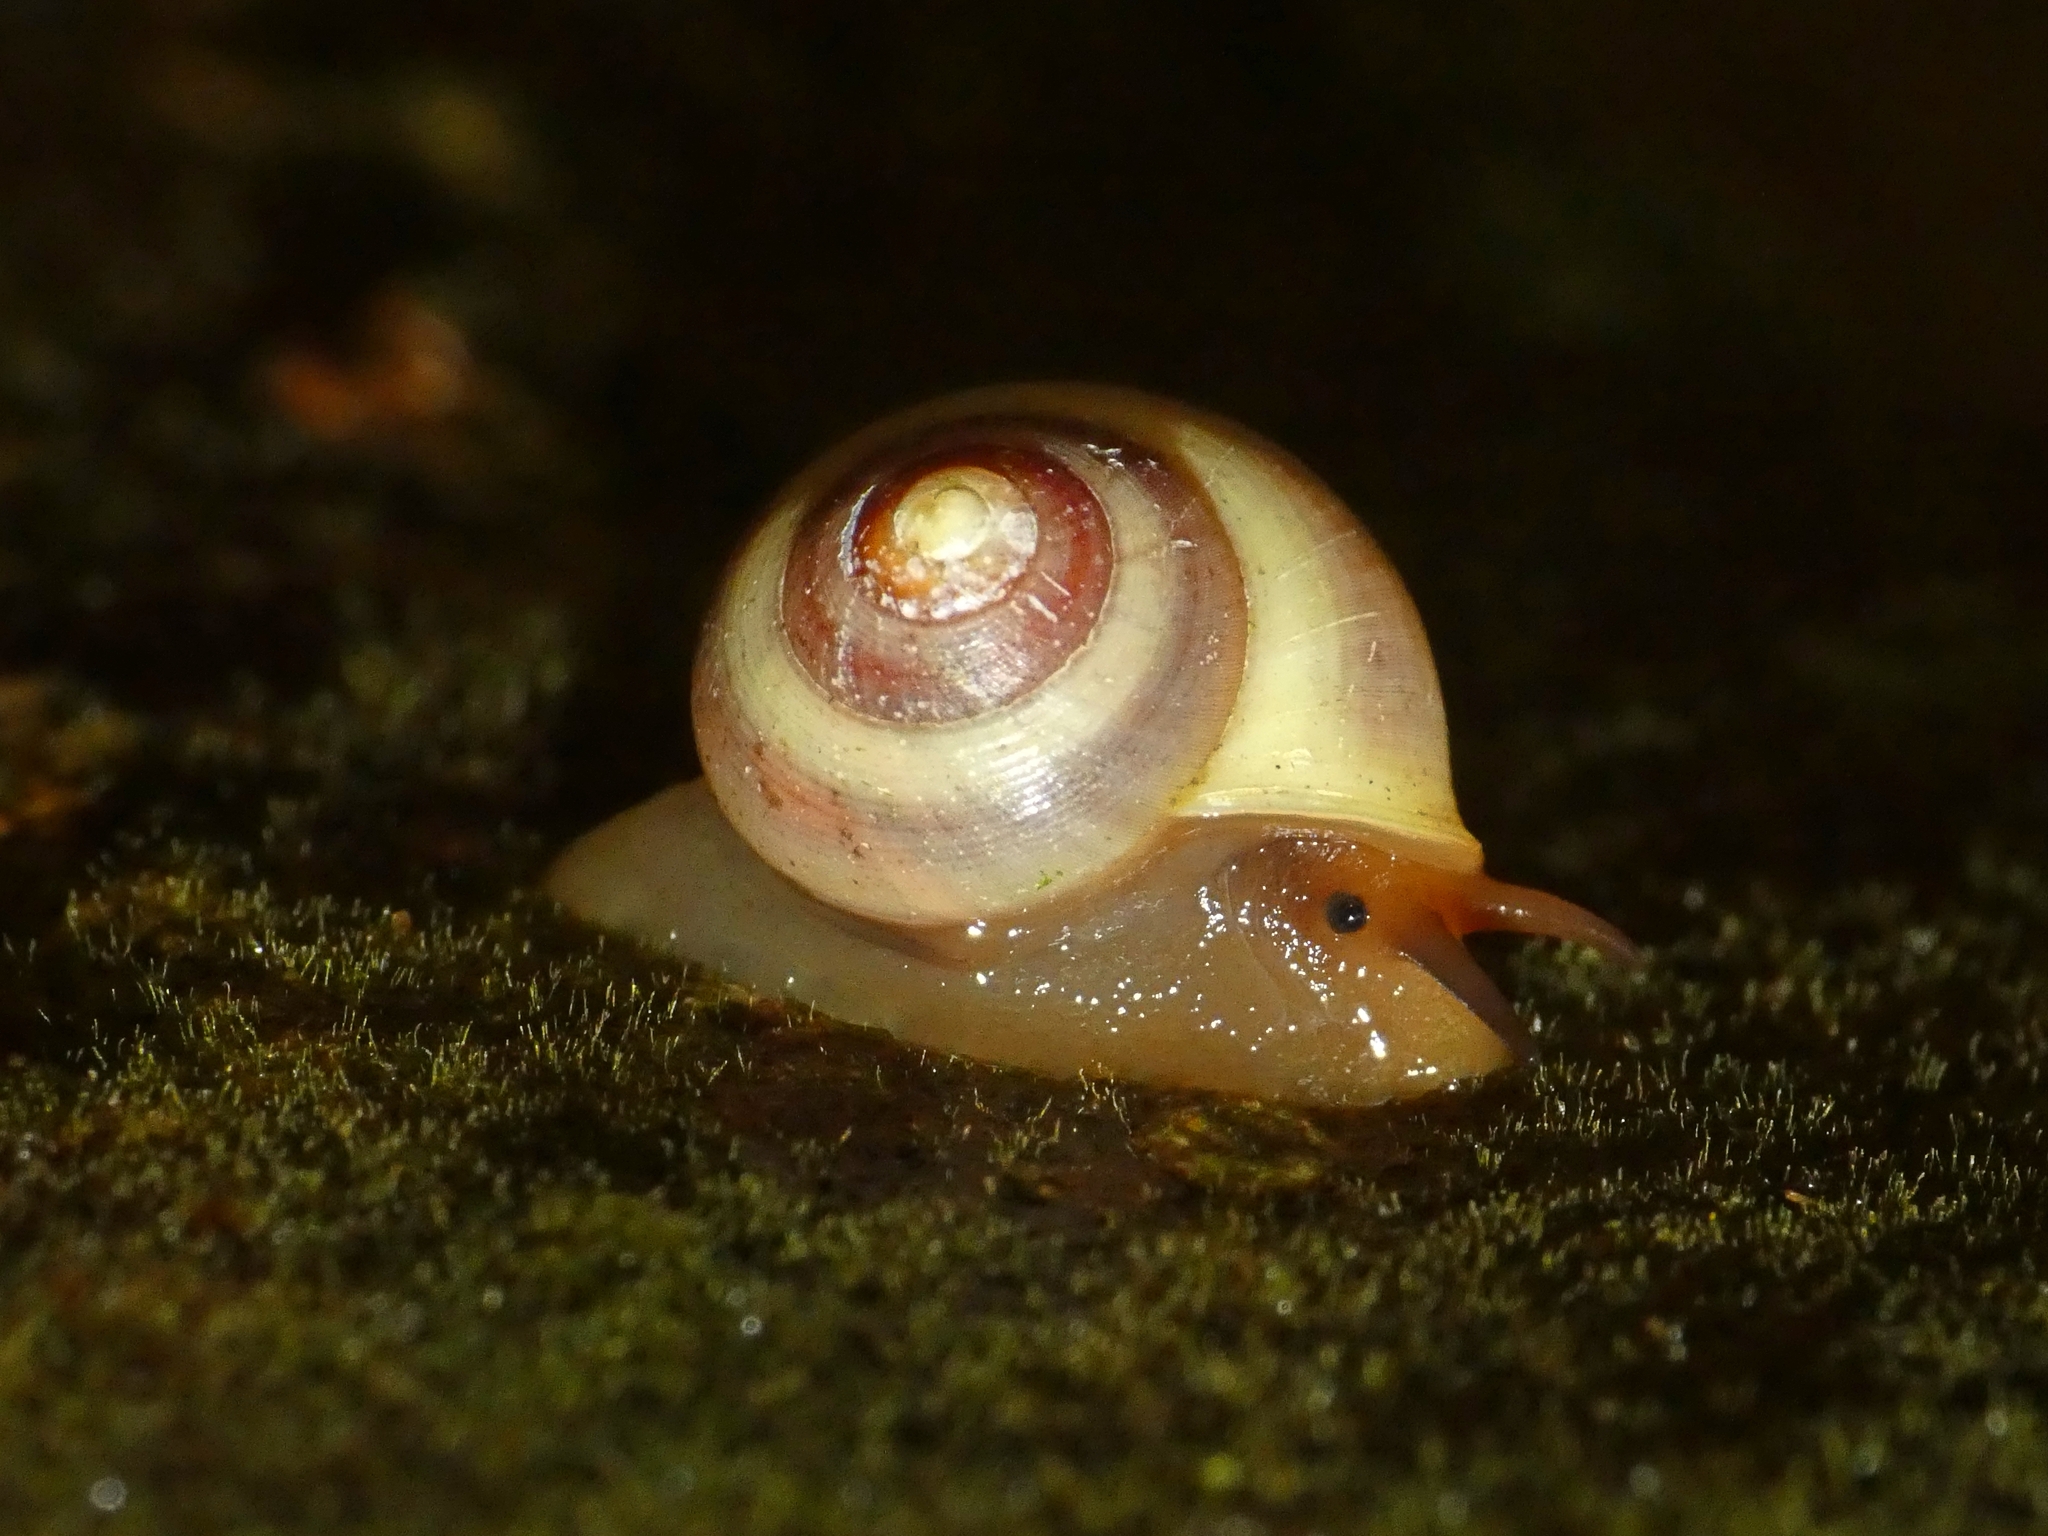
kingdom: Animalia
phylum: Mollusca
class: Gastropoda
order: Cycloneritida
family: Helicinidae
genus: Pleuropoma
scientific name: Pleuropoma gouldiana
